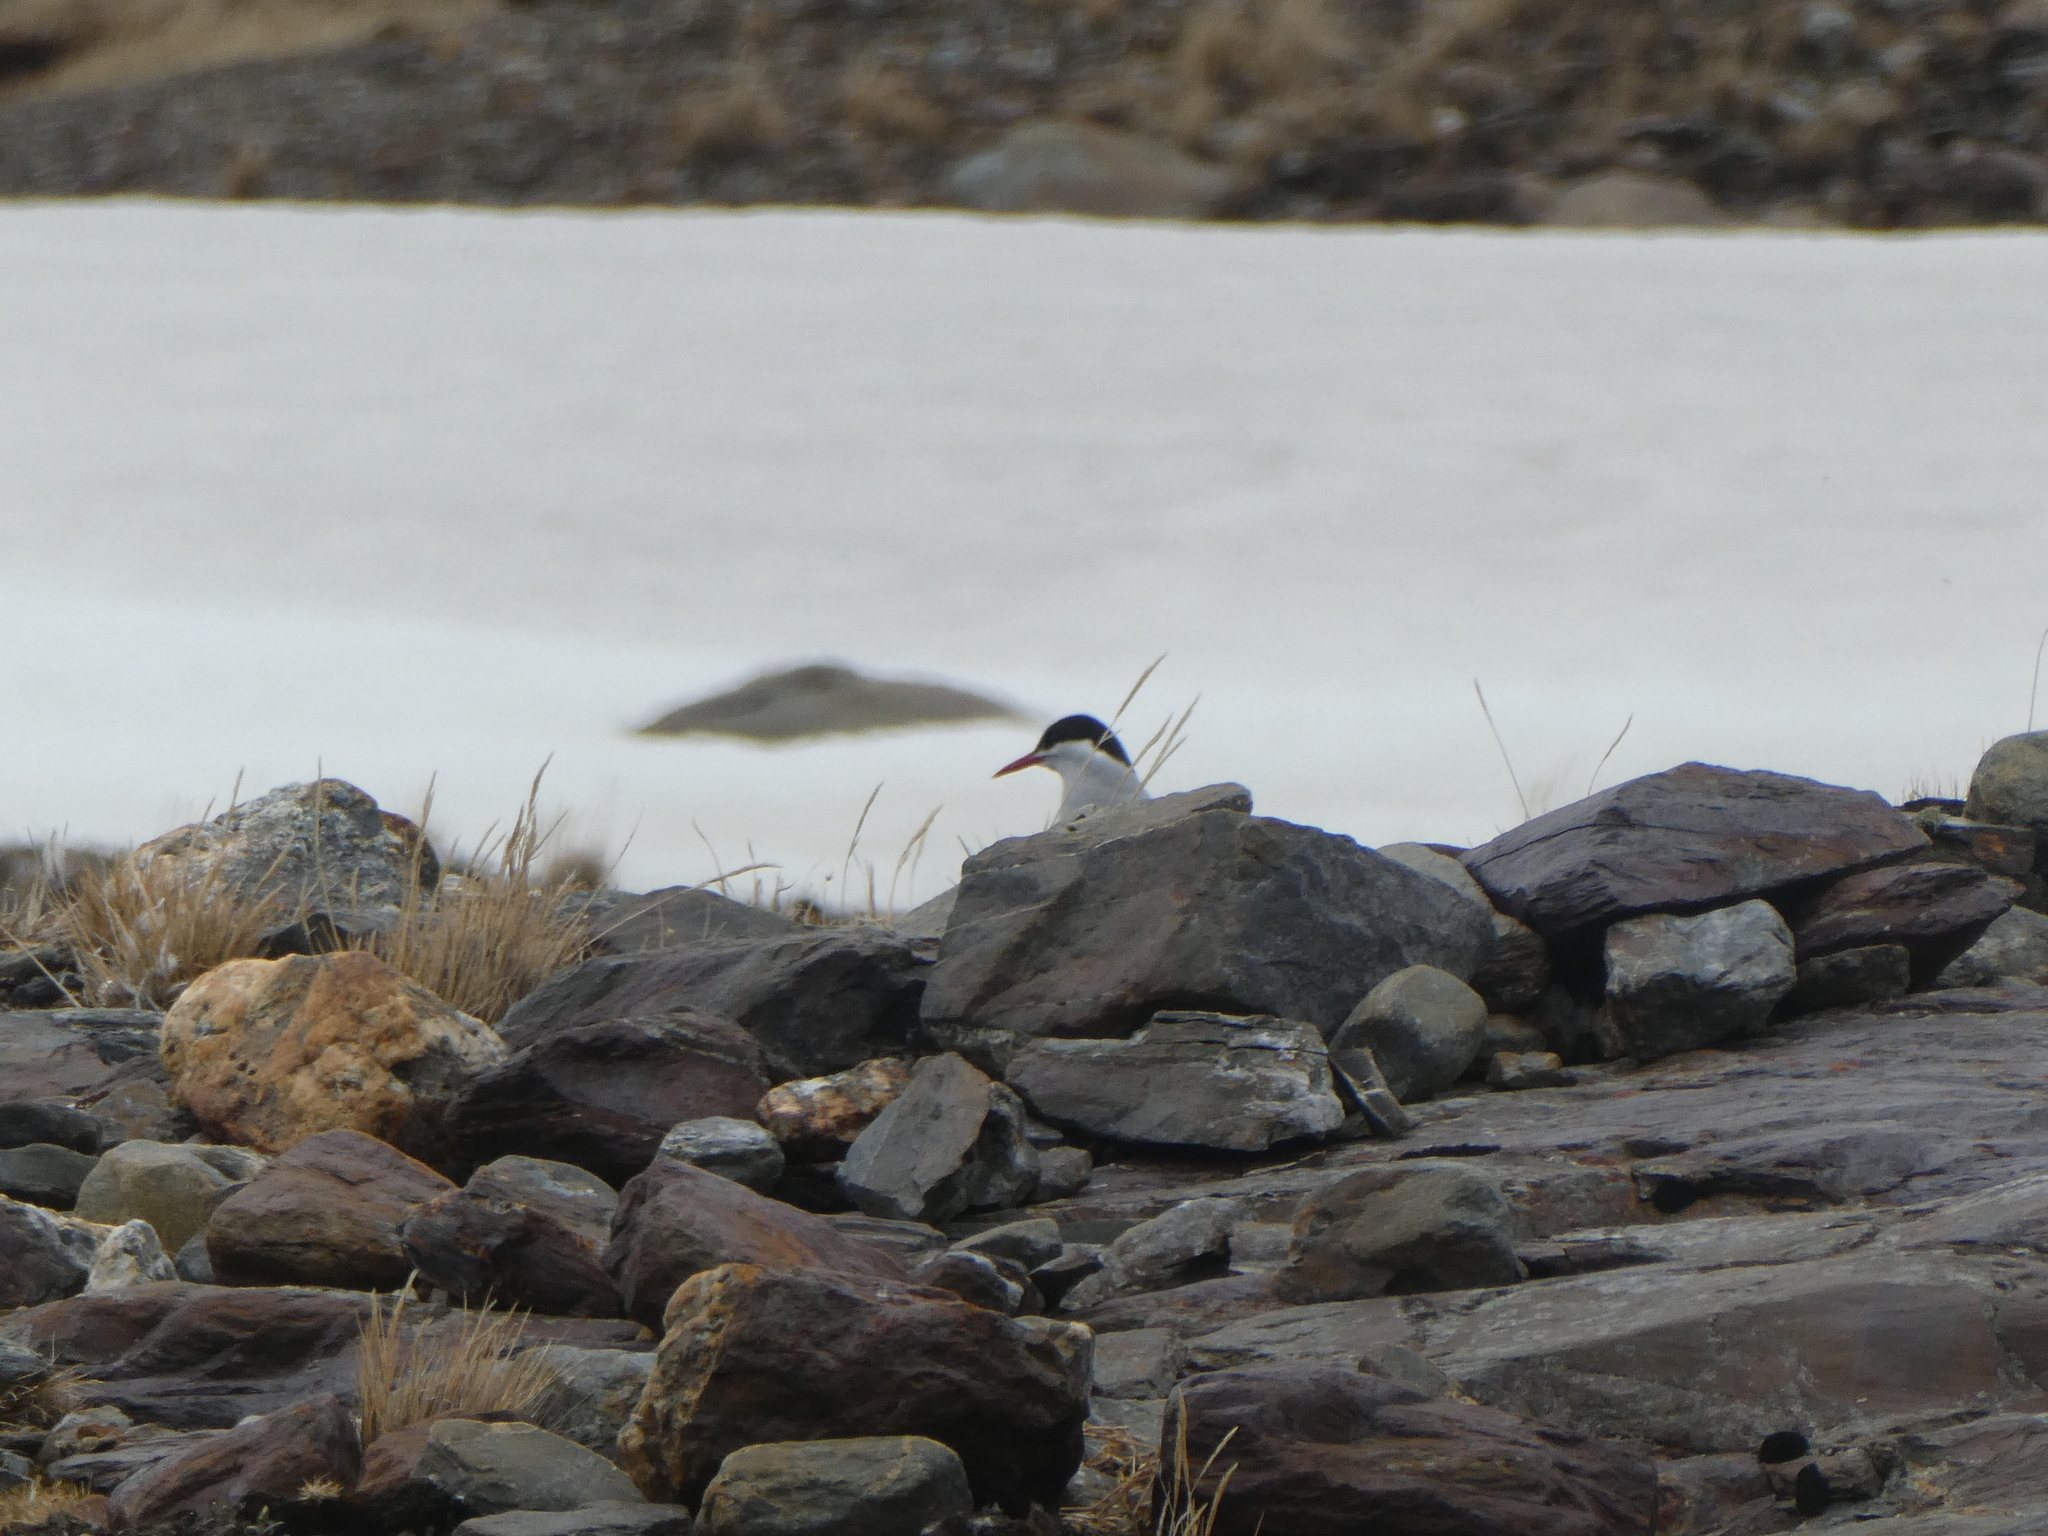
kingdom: Animalia
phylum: Chordata
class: Aves
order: Charadriiformes
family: Laridae
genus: Sterna
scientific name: Sterna vittata
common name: Antarctic tern
